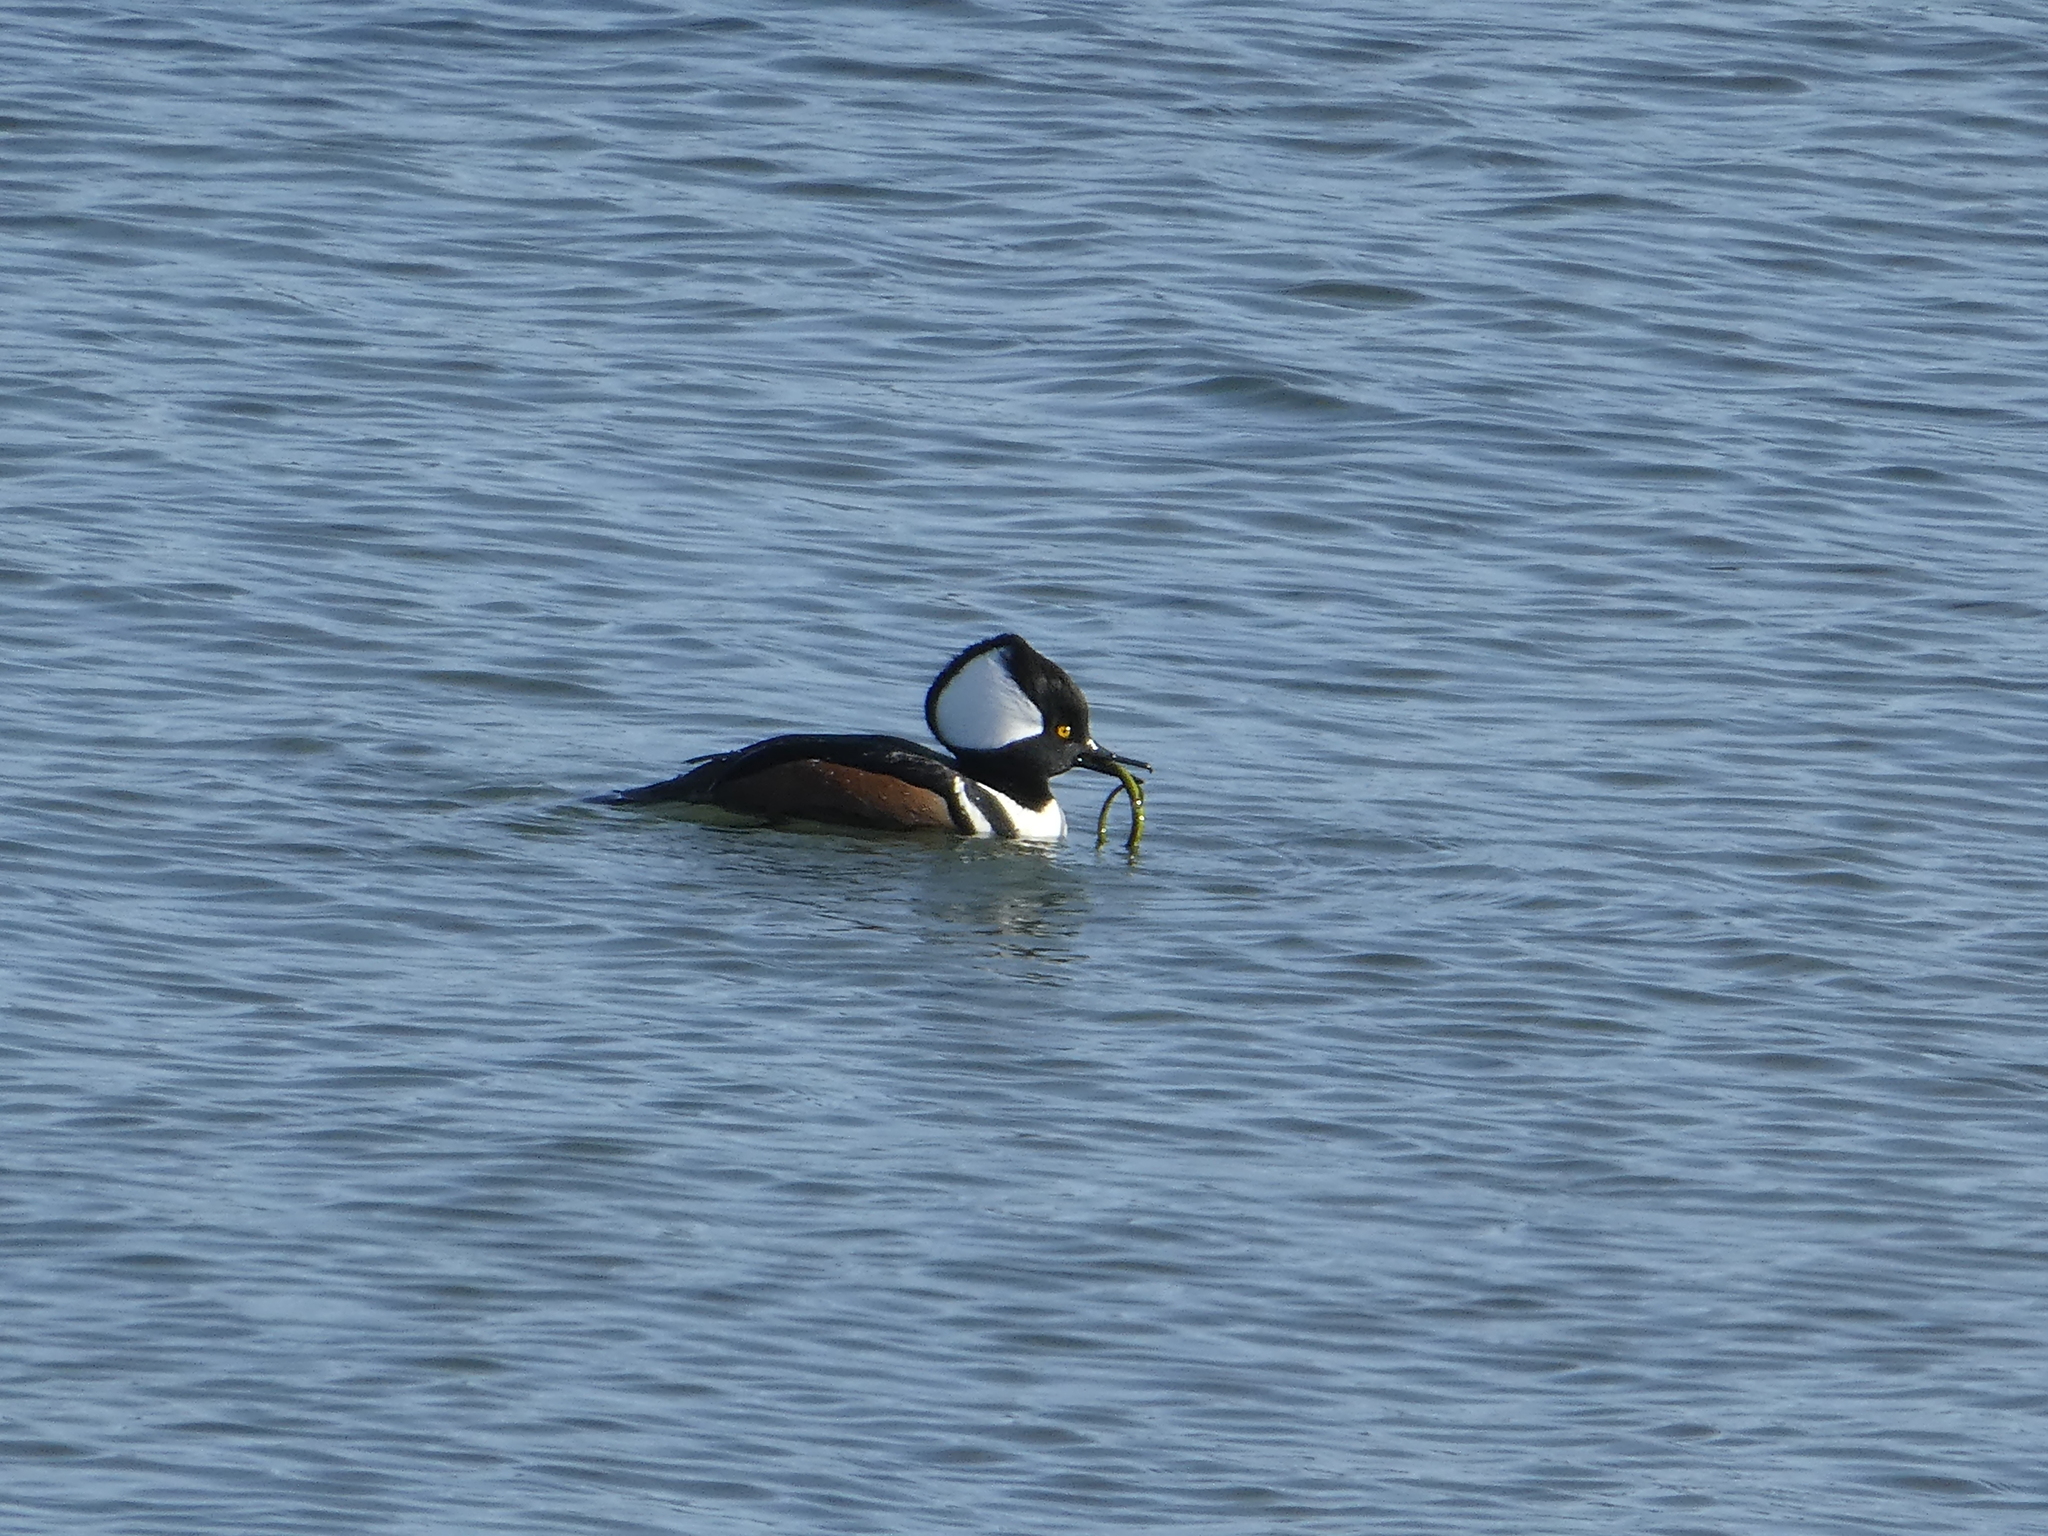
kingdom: Animalia
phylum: Chordata
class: Aves
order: Anseriformes
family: Anatidae
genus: Lophodytes
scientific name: Lophodytes cucullatus
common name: Hooded merganser
